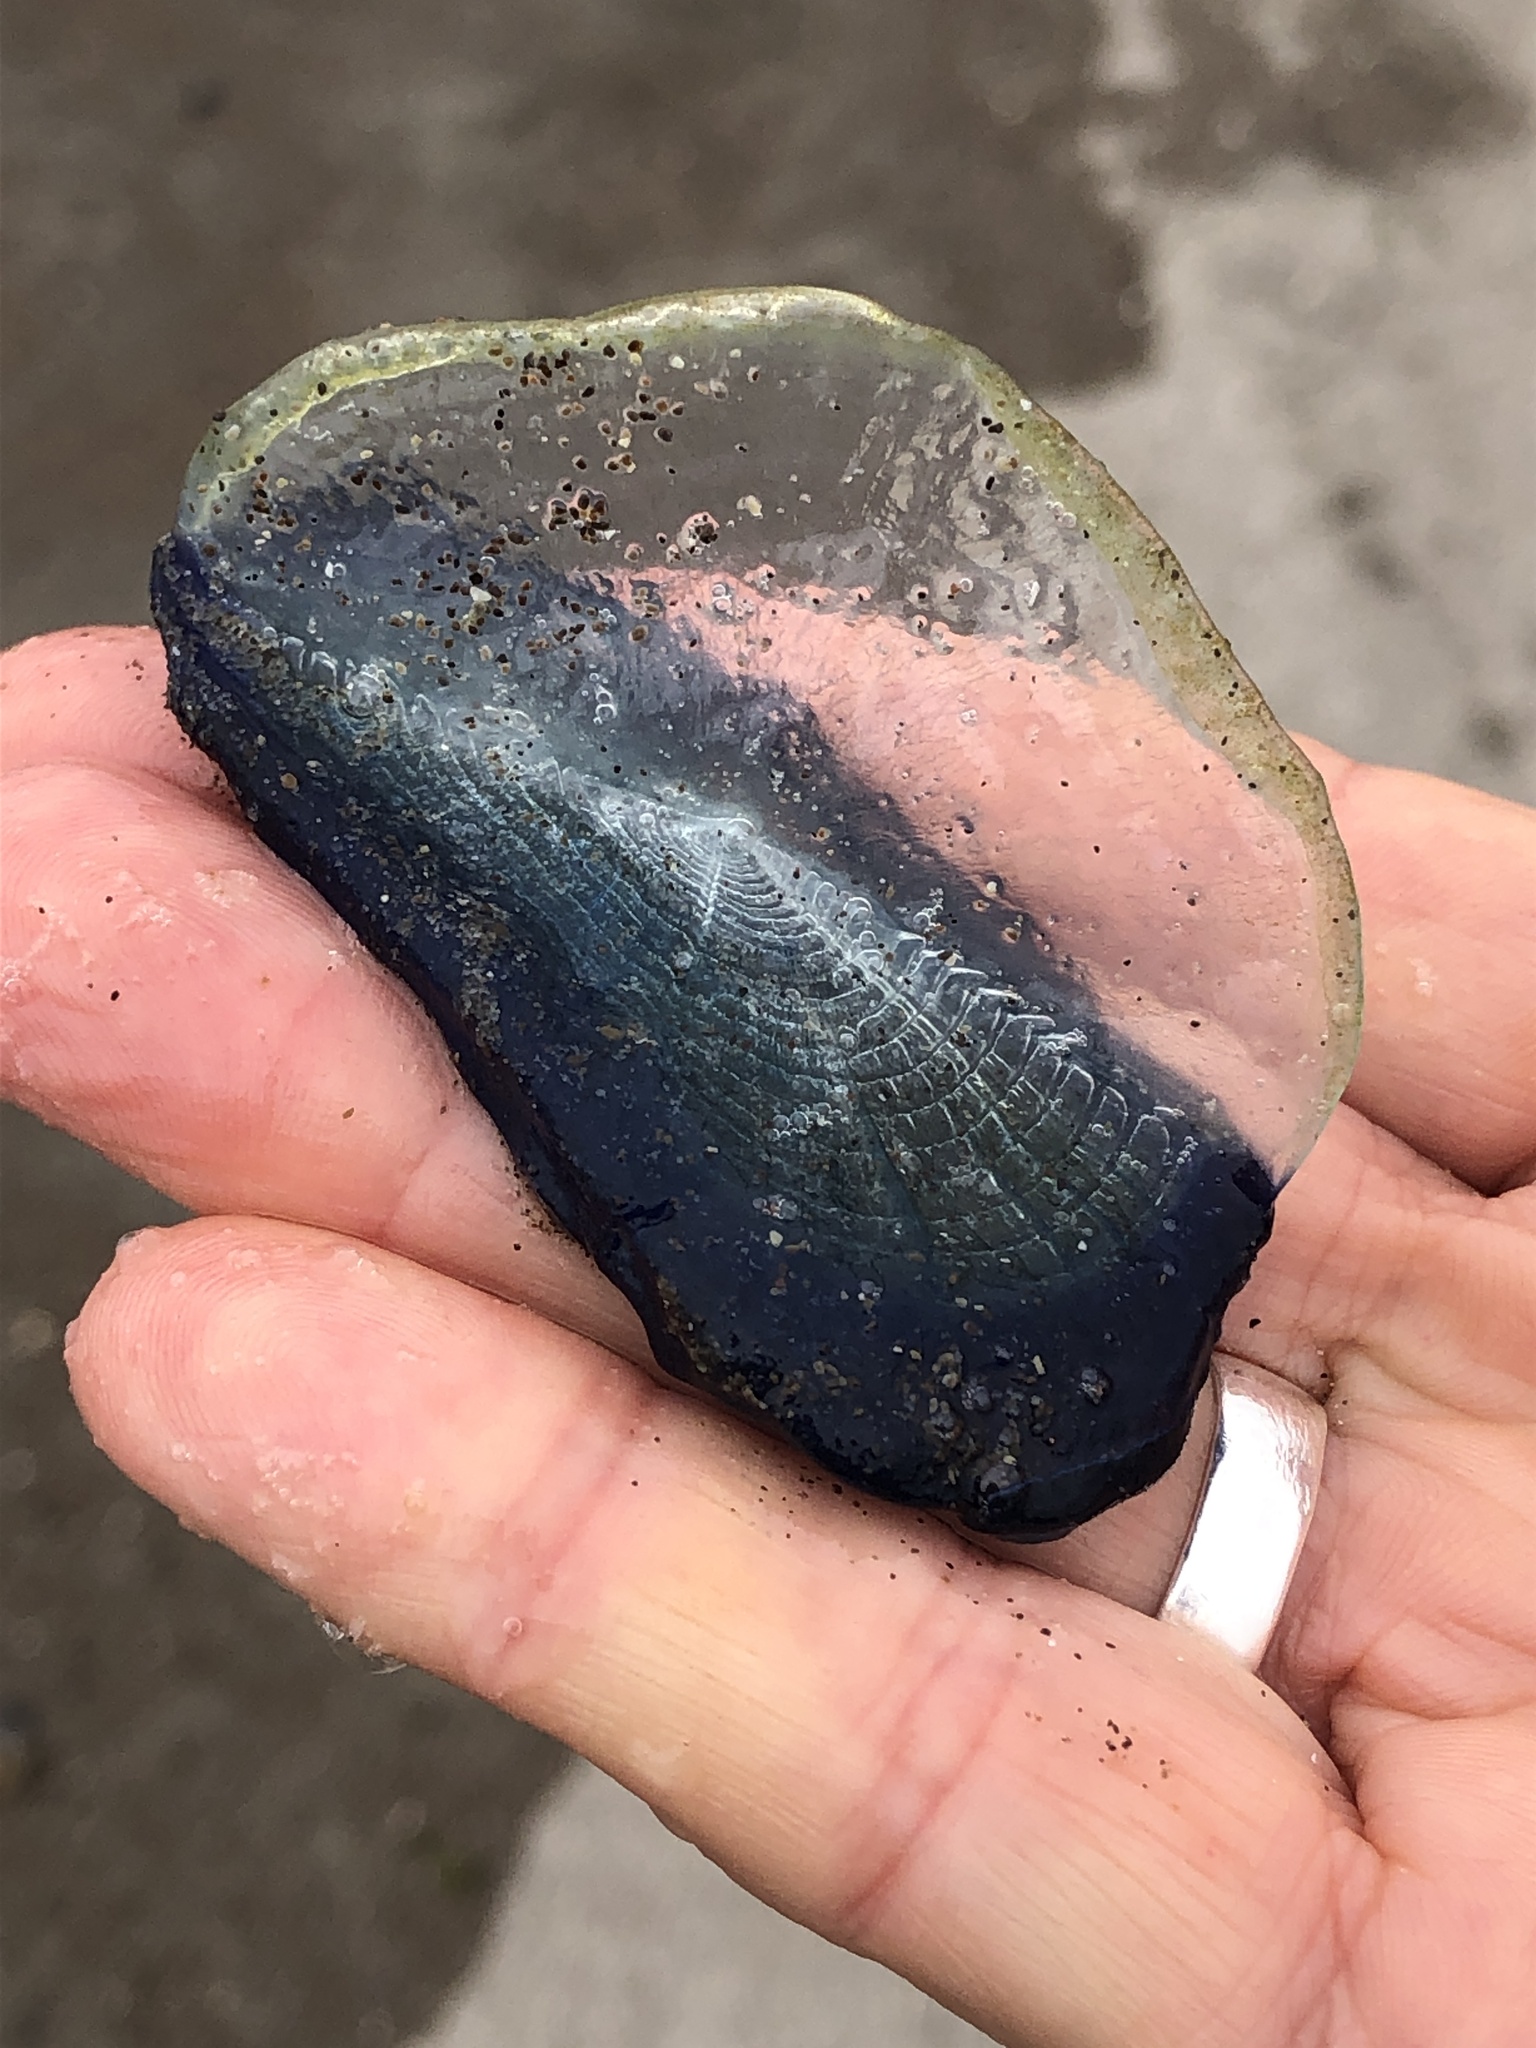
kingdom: Animalia
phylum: Cnidaria
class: Hydrozoa
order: Anthoathecata
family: Porpitidae
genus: Velella
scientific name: Velella velella
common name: By-the-wind-sailor
